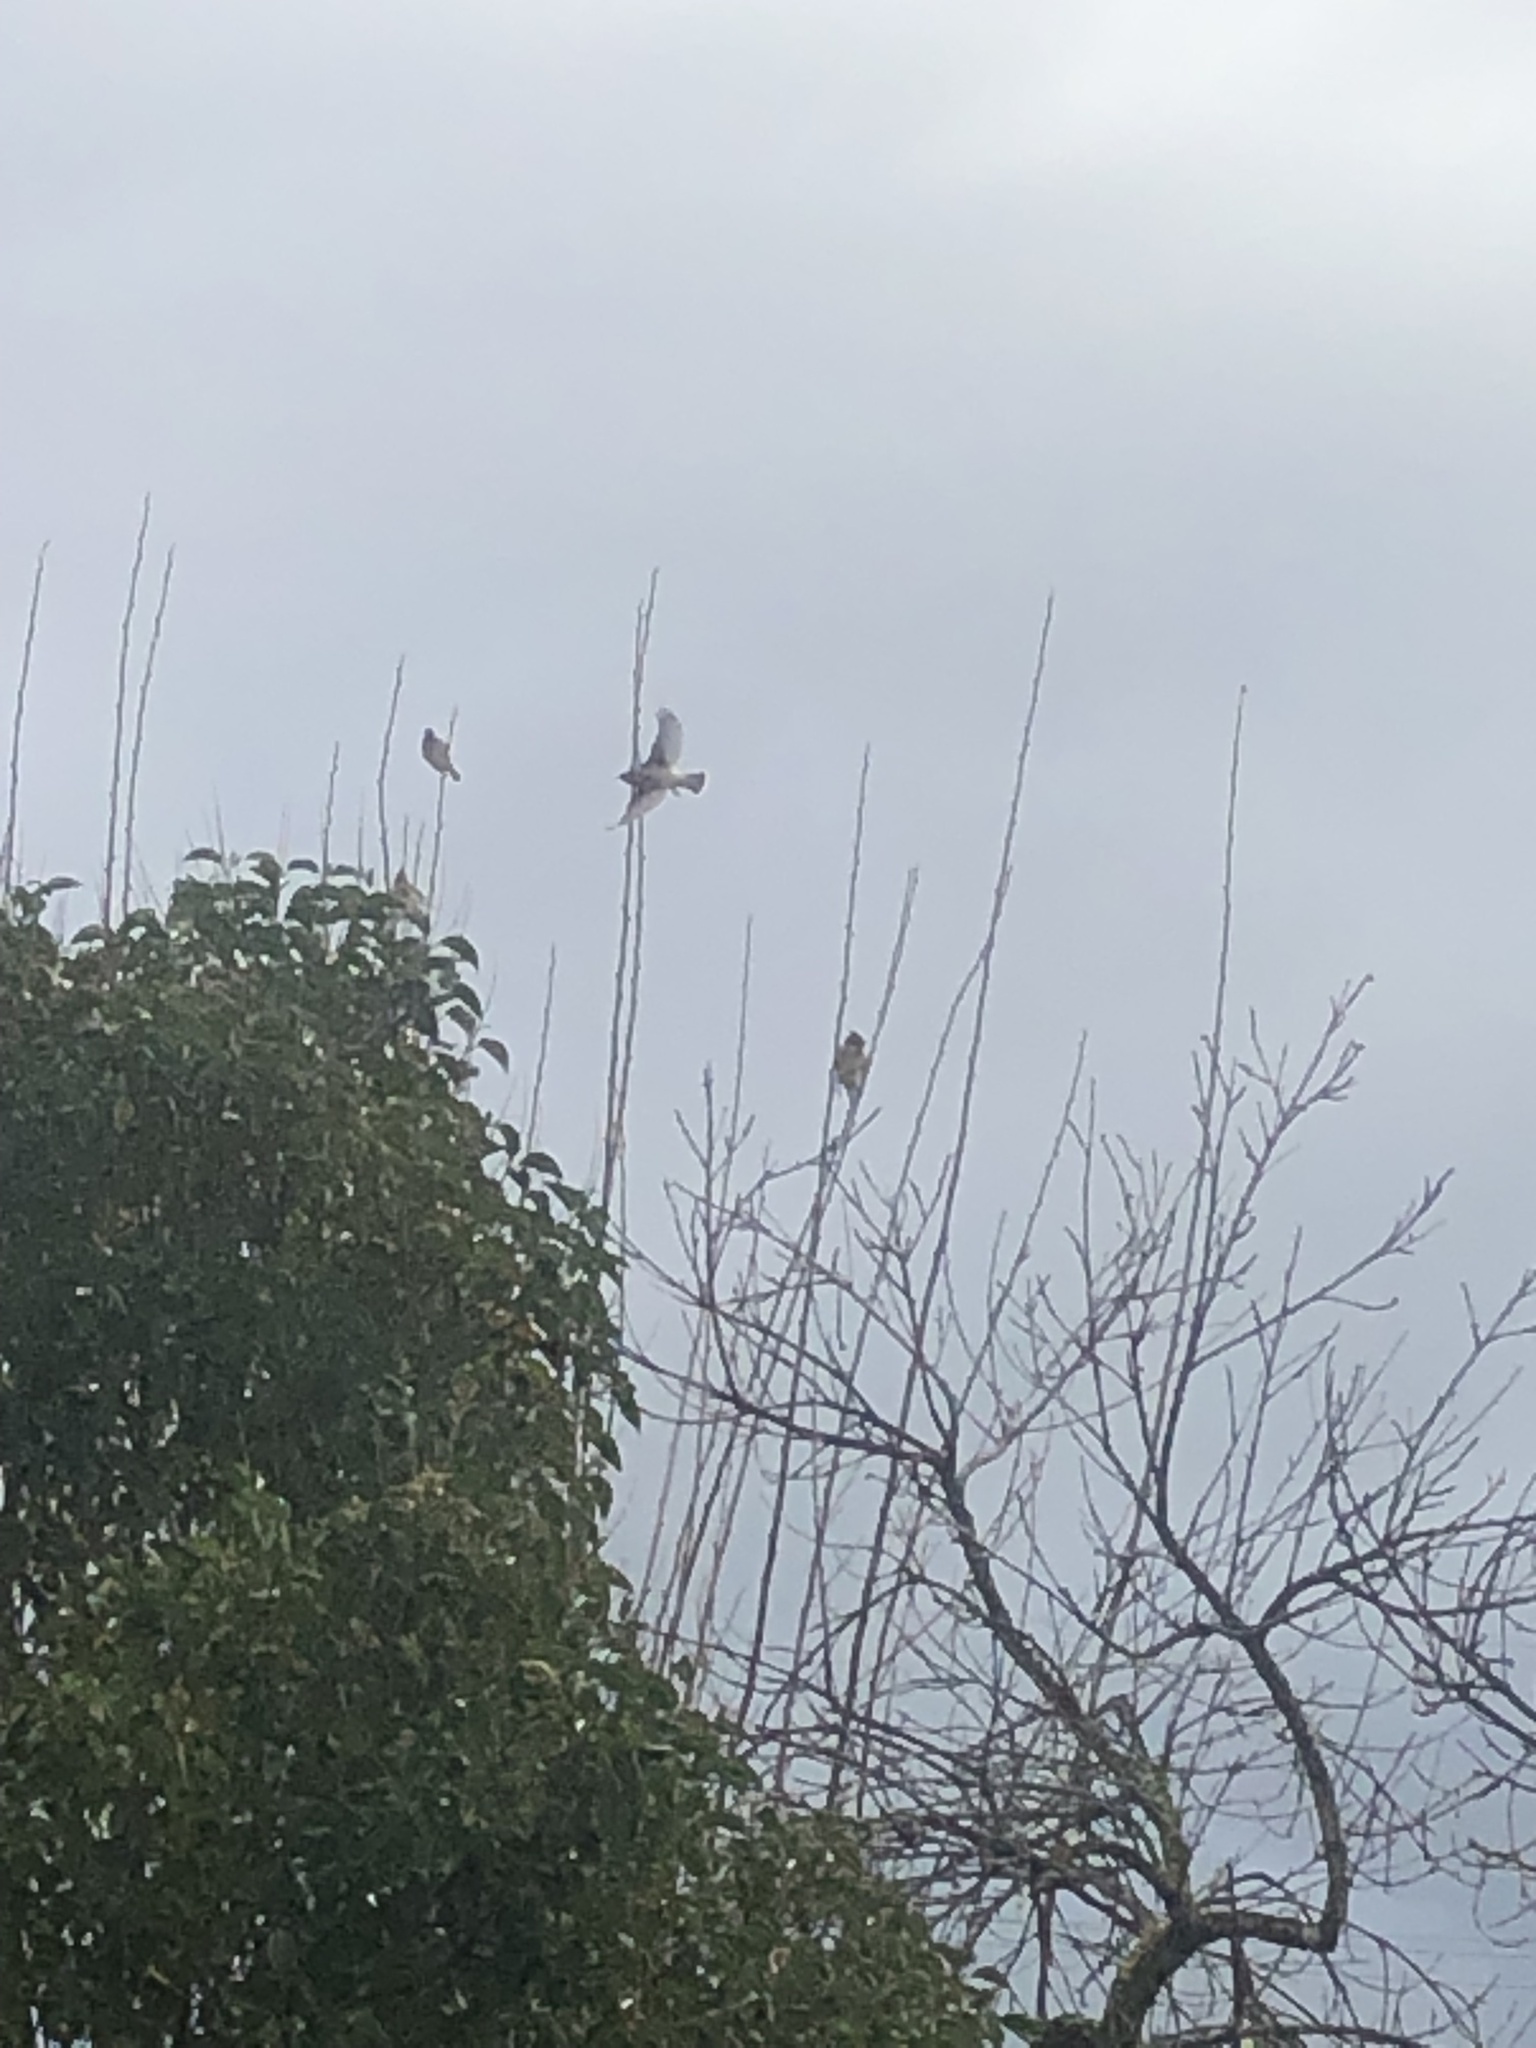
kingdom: Animalia
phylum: Chordata
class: Aves
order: Passeriformes
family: Bombycillidae
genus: Bombycilla
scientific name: Bombycilla cedrorum
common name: Cedar waxwing
